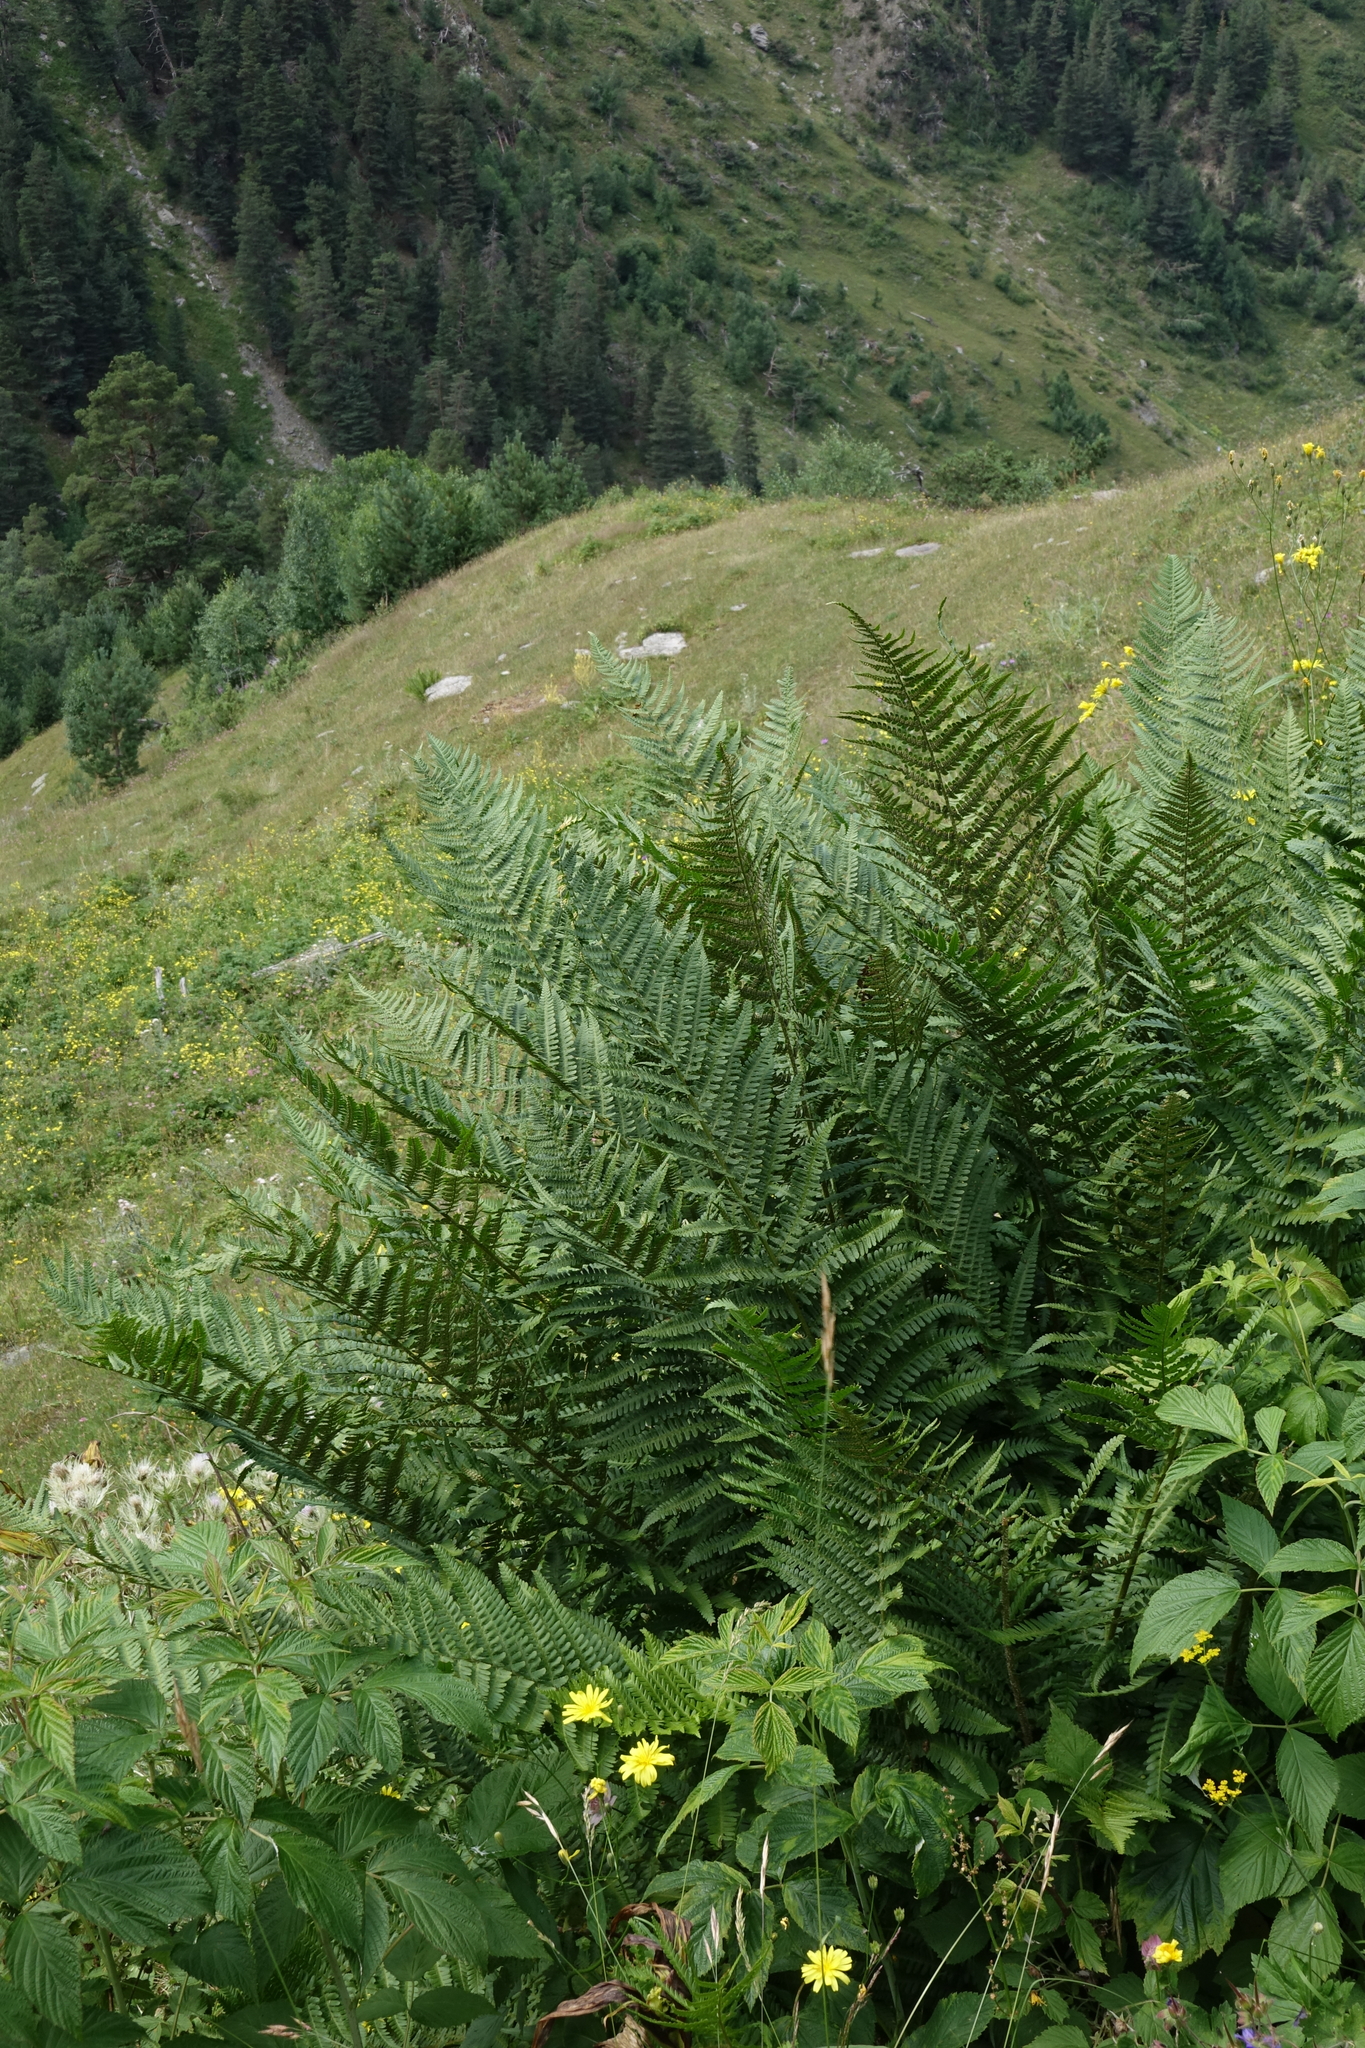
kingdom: Plantae
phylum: Tracheophyta
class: Polypodiopsida
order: Polypodiales
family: Dryopteridaceae
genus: Dryopteris
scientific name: Dryopteris filix-mas
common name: Male fern
